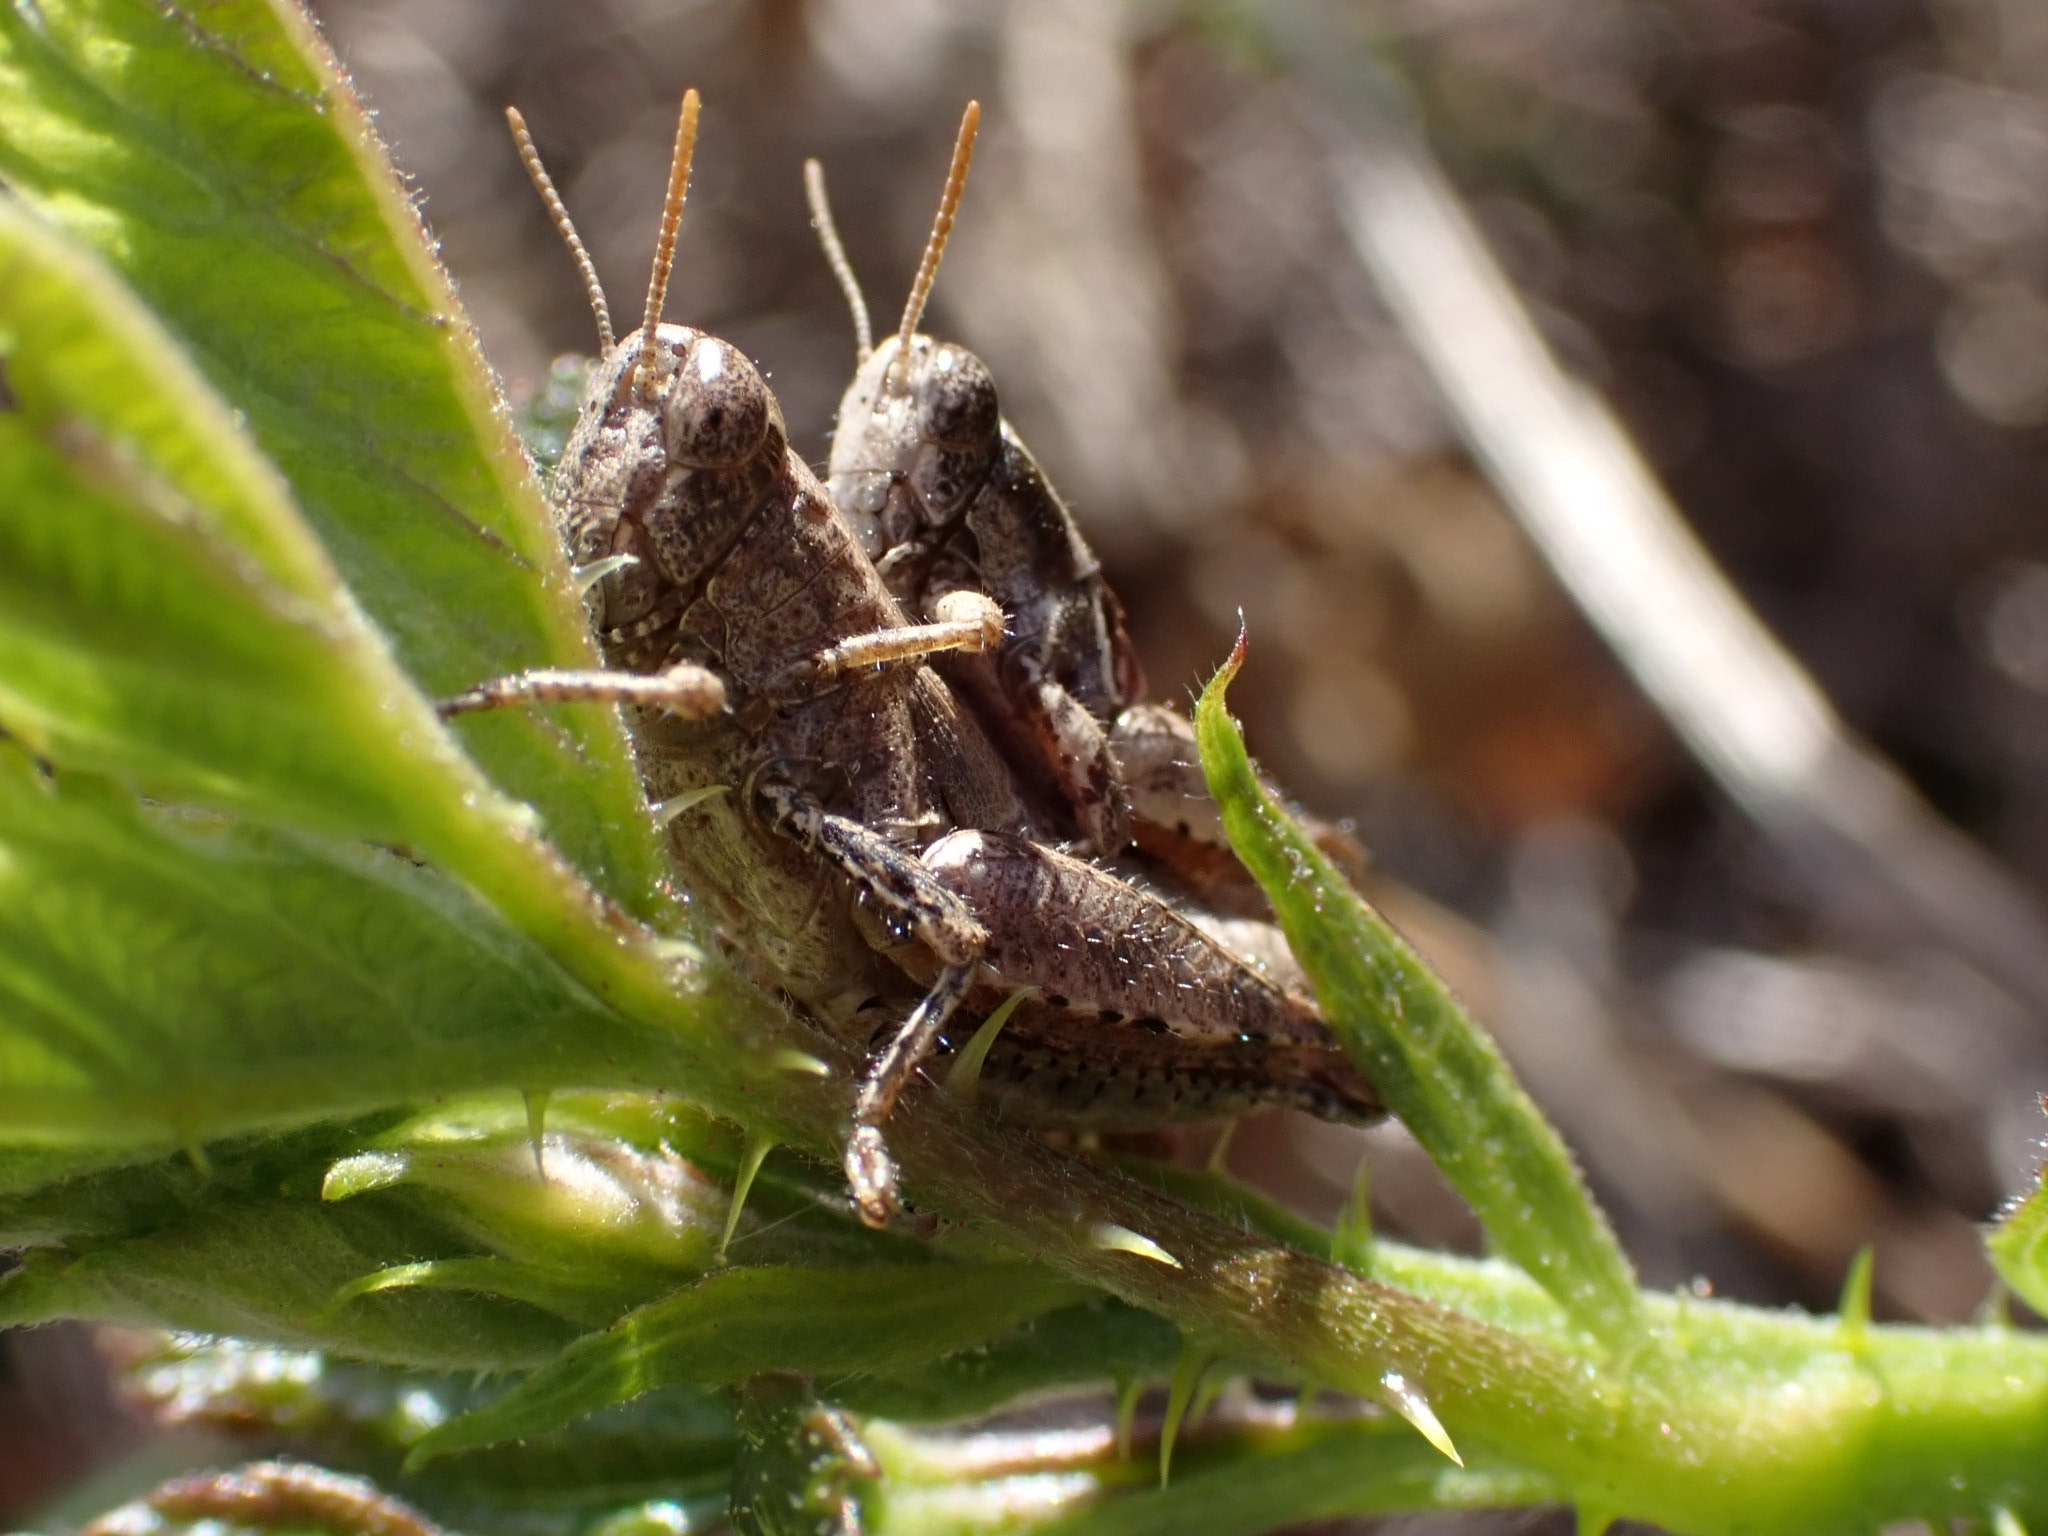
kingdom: Animalia
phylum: Arthropoda
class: Insecta
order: Orthoptera
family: Acrididae
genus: Pezotettix
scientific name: Pezotettix giornae
